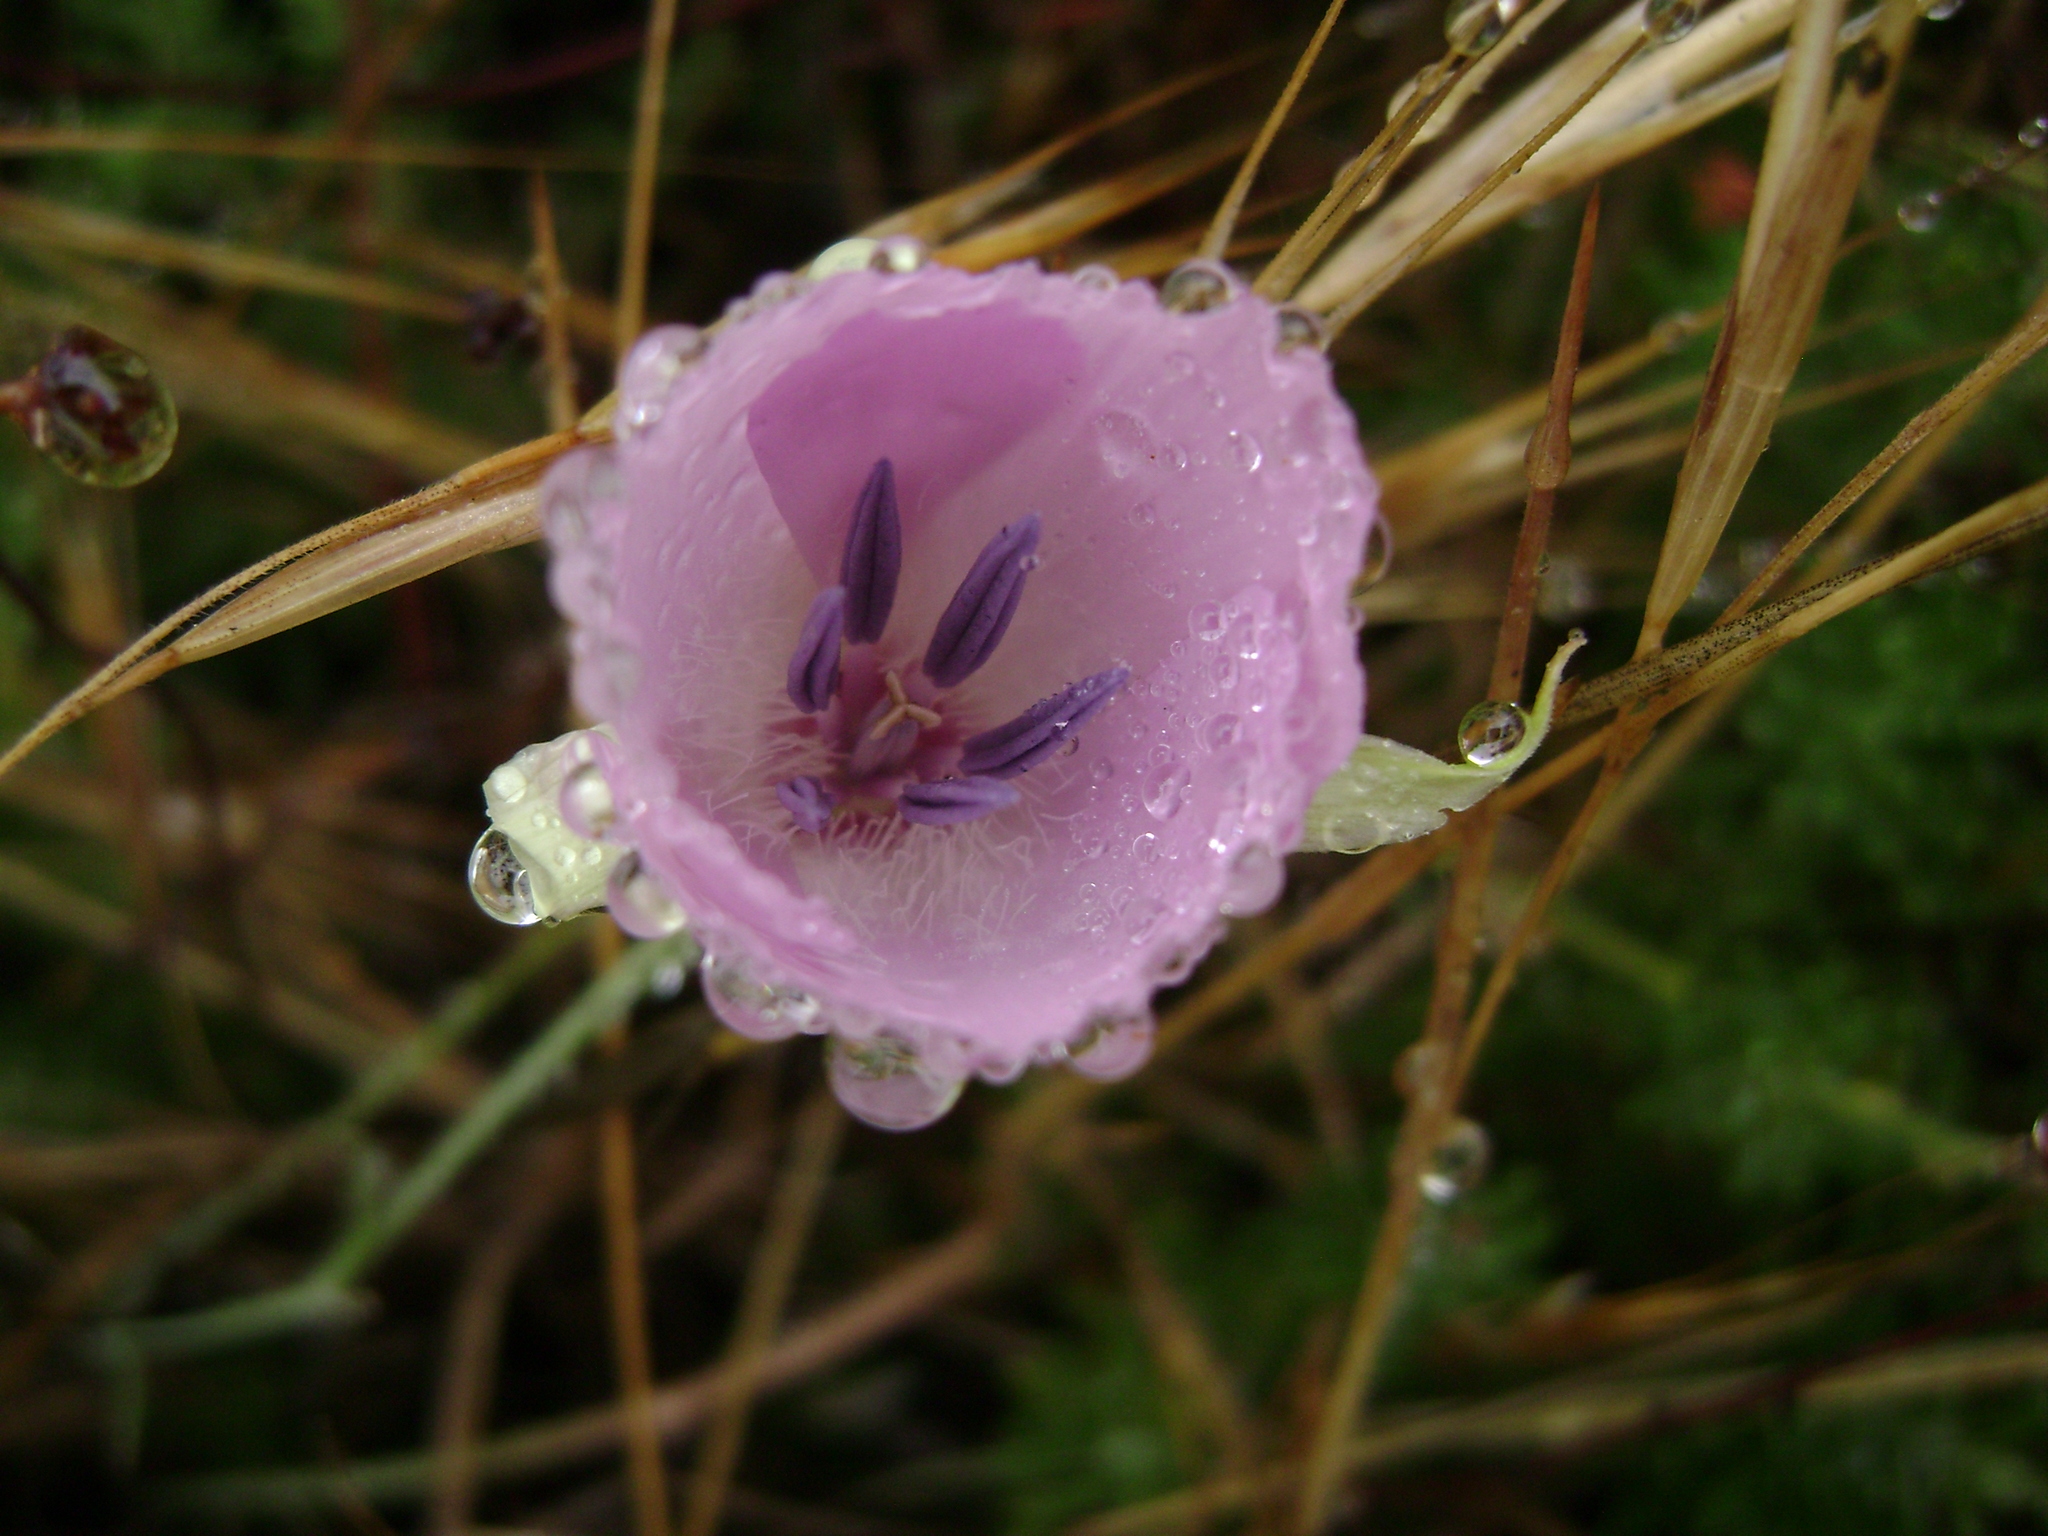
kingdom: Plantae
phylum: Tracheophyta
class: Liliopsida
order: Liliales
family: Liliaceae
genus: Calochortus
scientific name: Calochortus splendens
